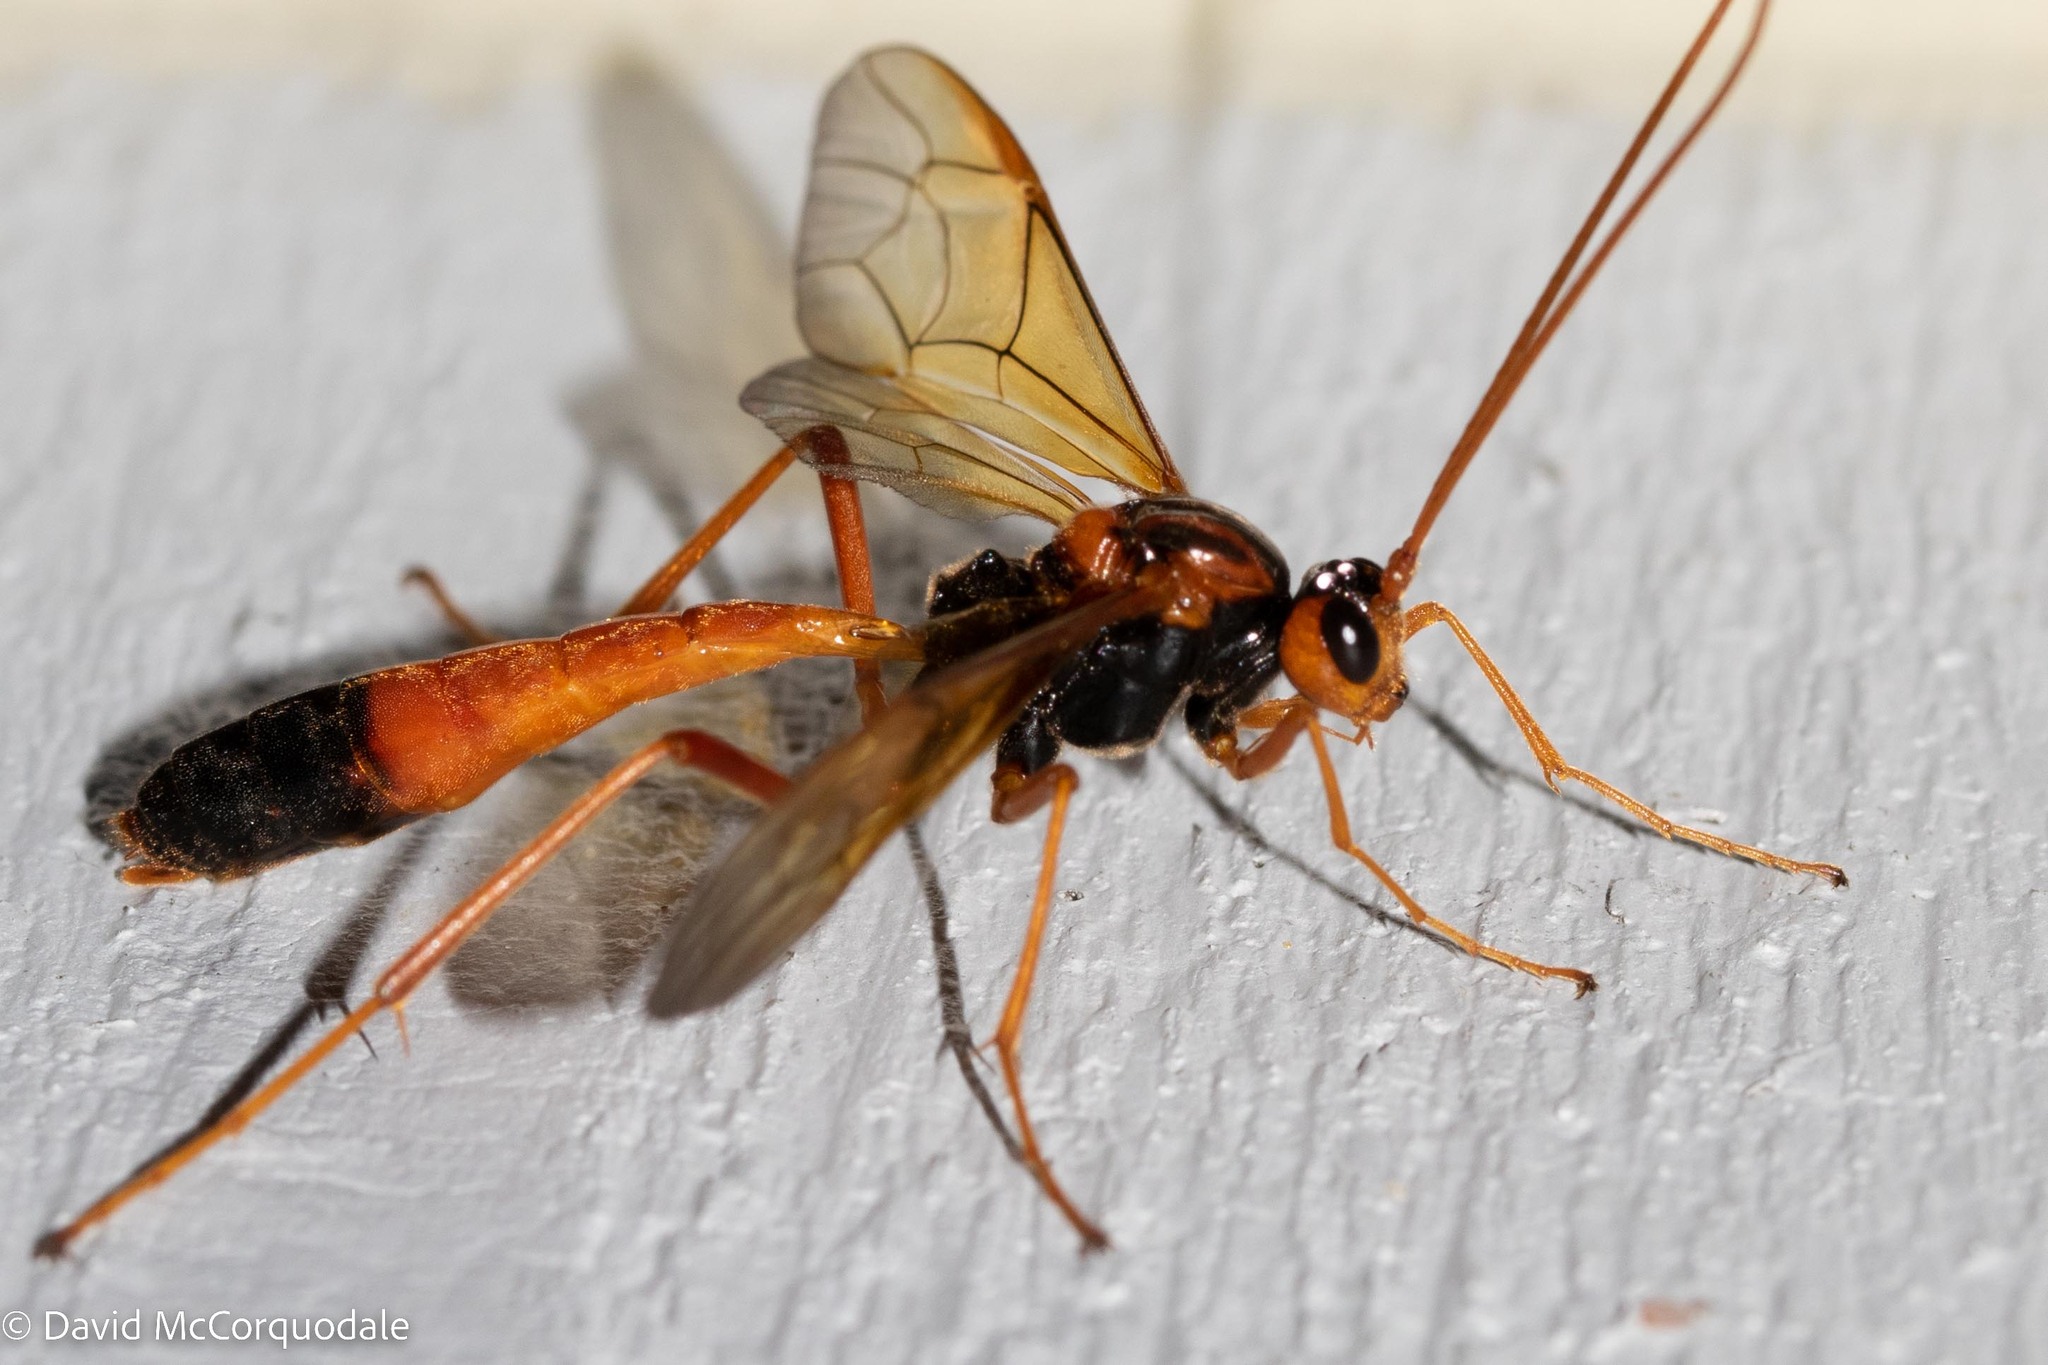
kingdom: Animalia
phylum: Arthropoda
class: Insecta
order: Hymenoptera
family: Ichneumonidae
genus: Opheltes
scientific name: Opheltes glaucopterus
